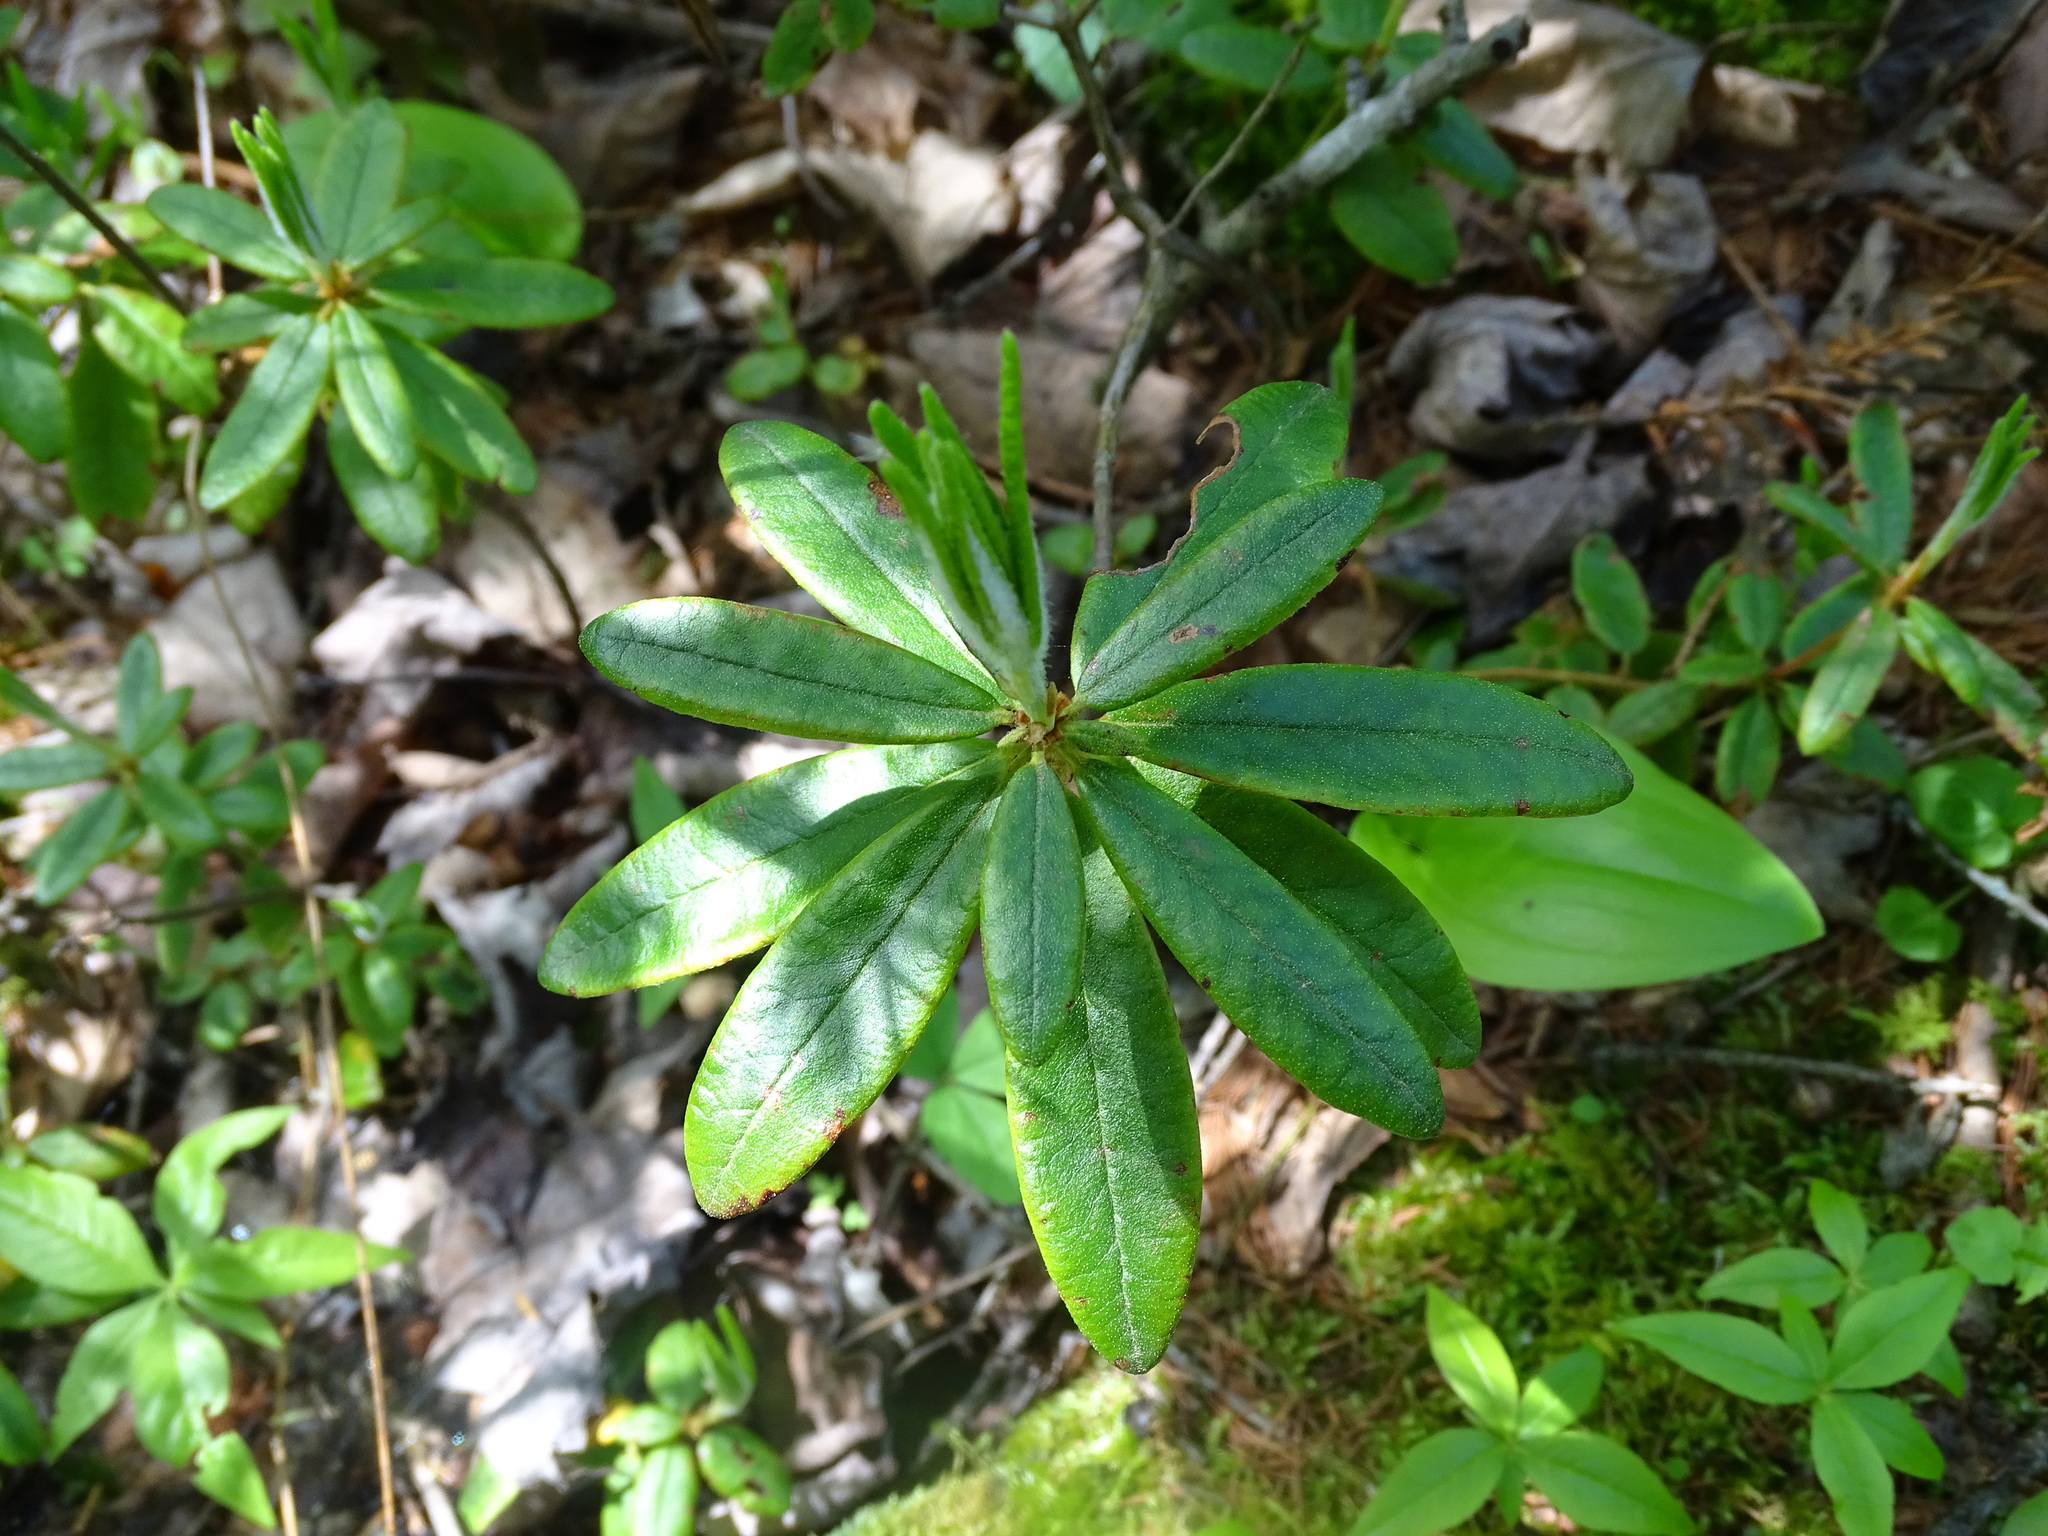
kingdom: Plantae
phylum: Tracheophyta
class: Magnoliopsida
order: Ericales
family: Ericaceae
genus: Rhododendron
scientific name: Rhododendron groenlandicum
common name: Bog labrador tea
